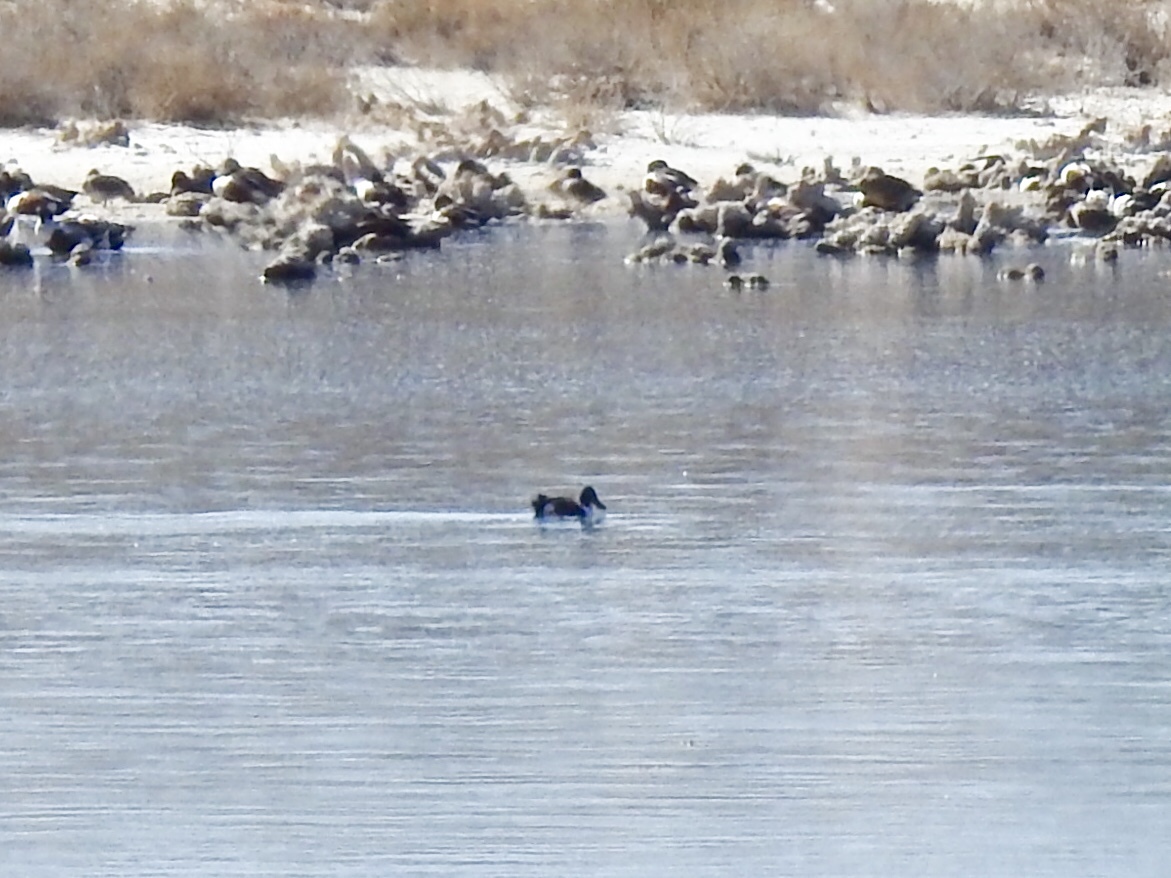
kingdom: Animalia
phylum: Chordata
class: Aves
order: Anseriformes
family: Anatidae
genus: Spatula
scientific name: Spatula clypeata
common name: Northern shoveler
